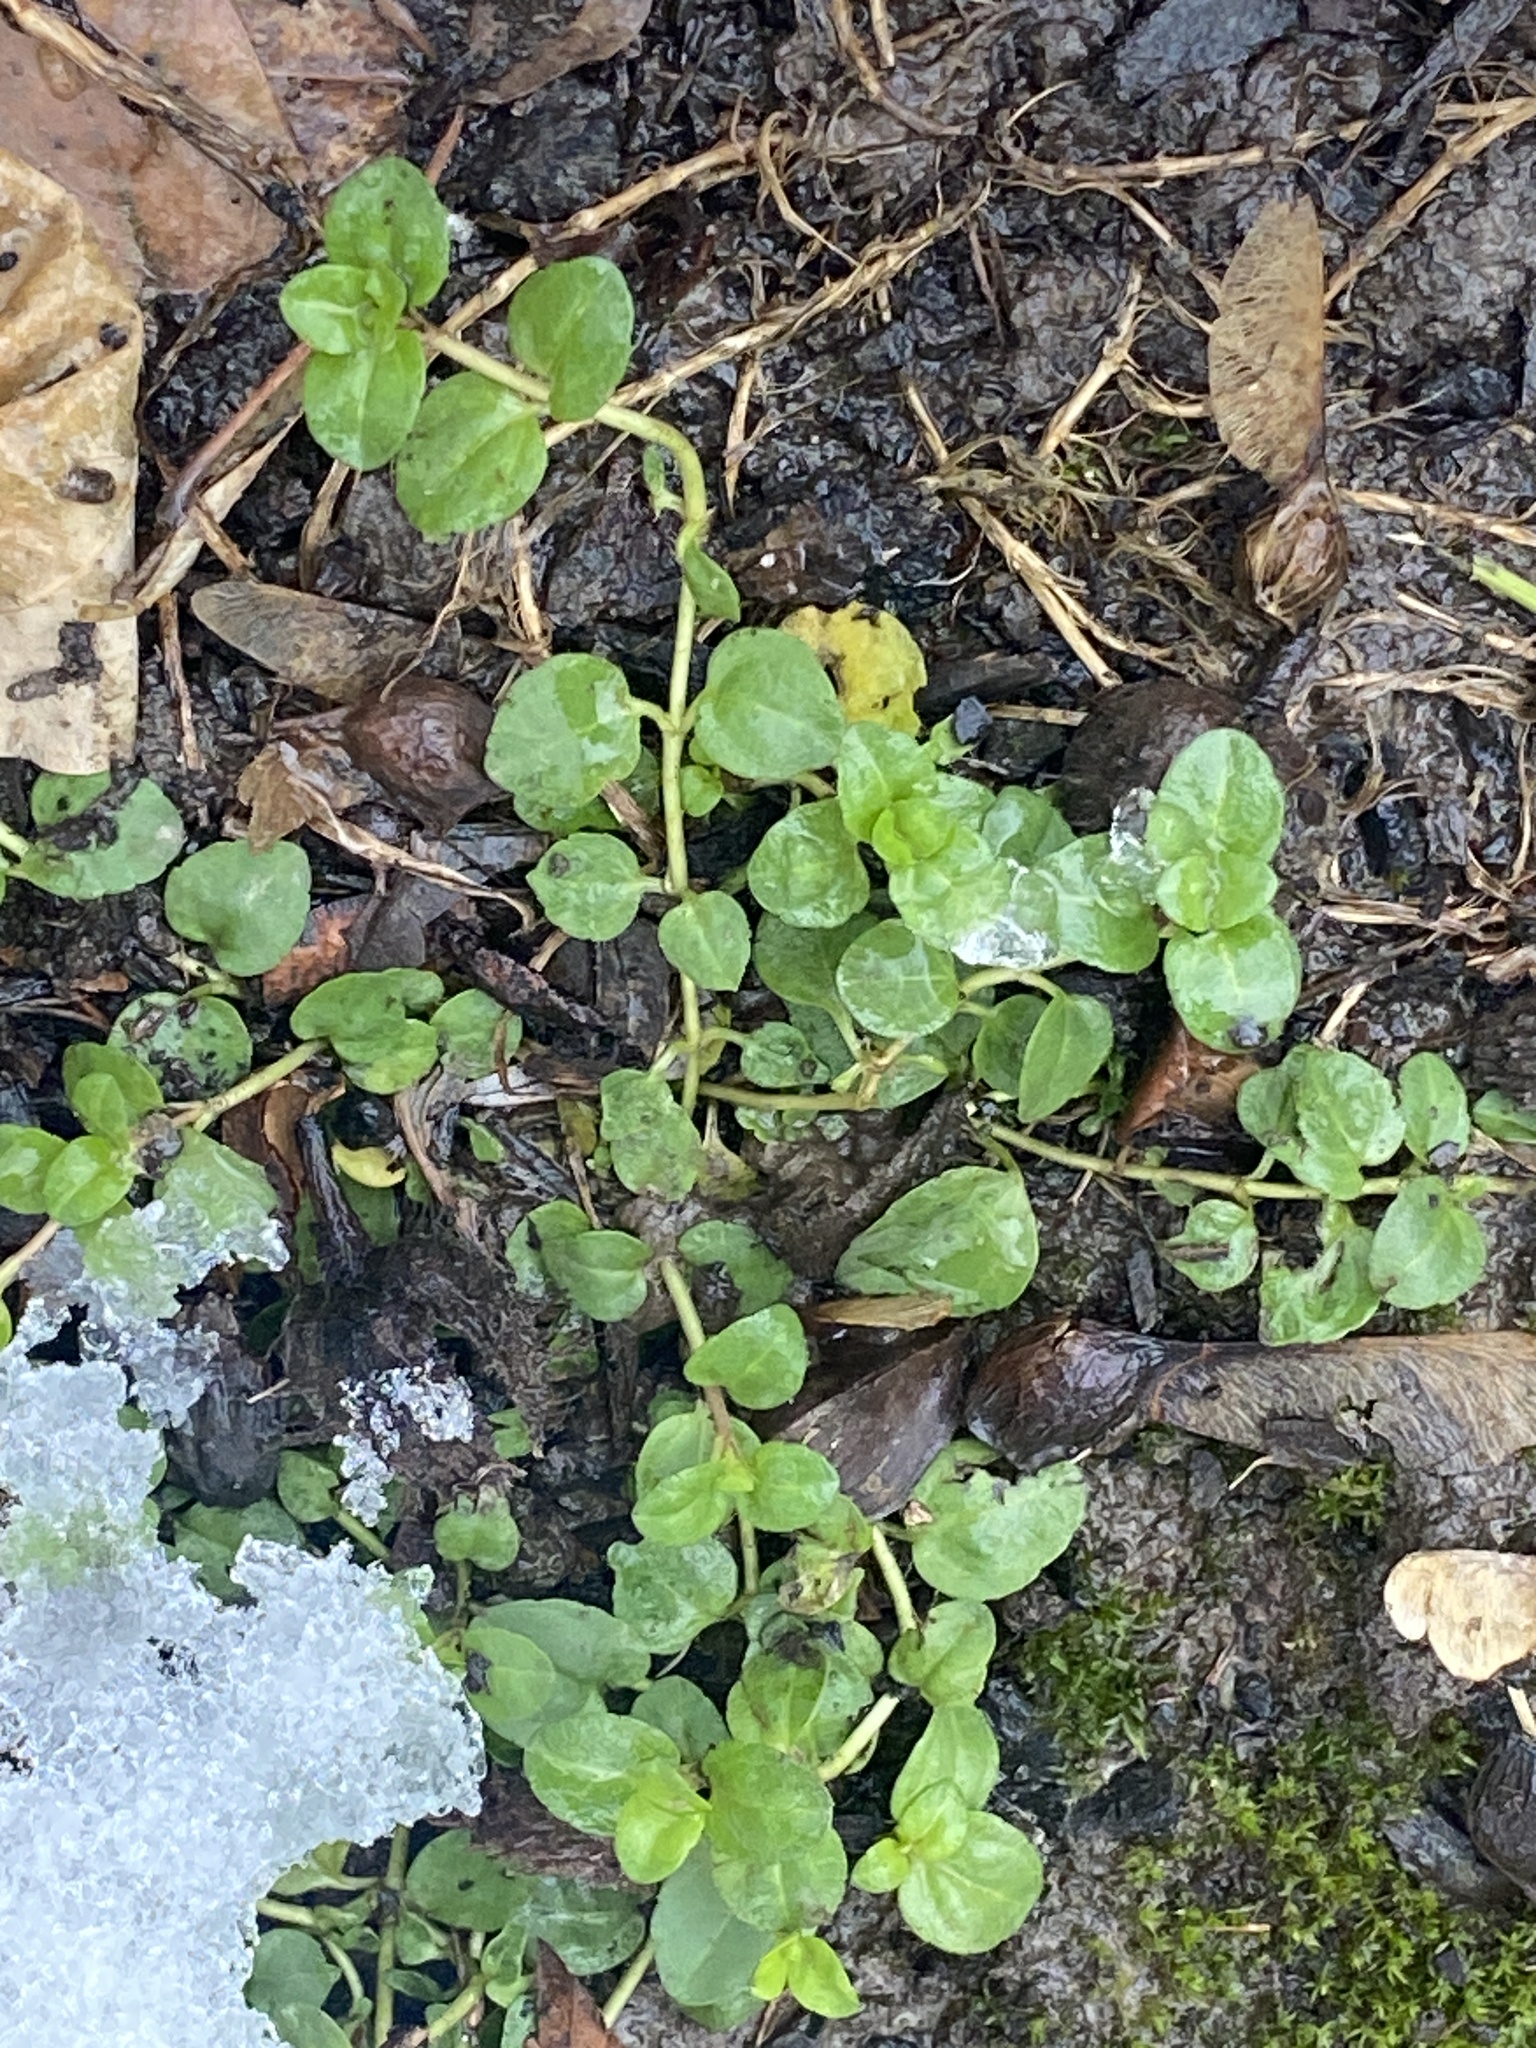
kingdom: Plantae
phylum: Tracheophyta
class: Magnoliopsida
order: Lamiales
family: Plantaginaceae
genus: Veronica
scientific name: Veronica serpyllifolia
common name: Thyme-leaved speedwell
